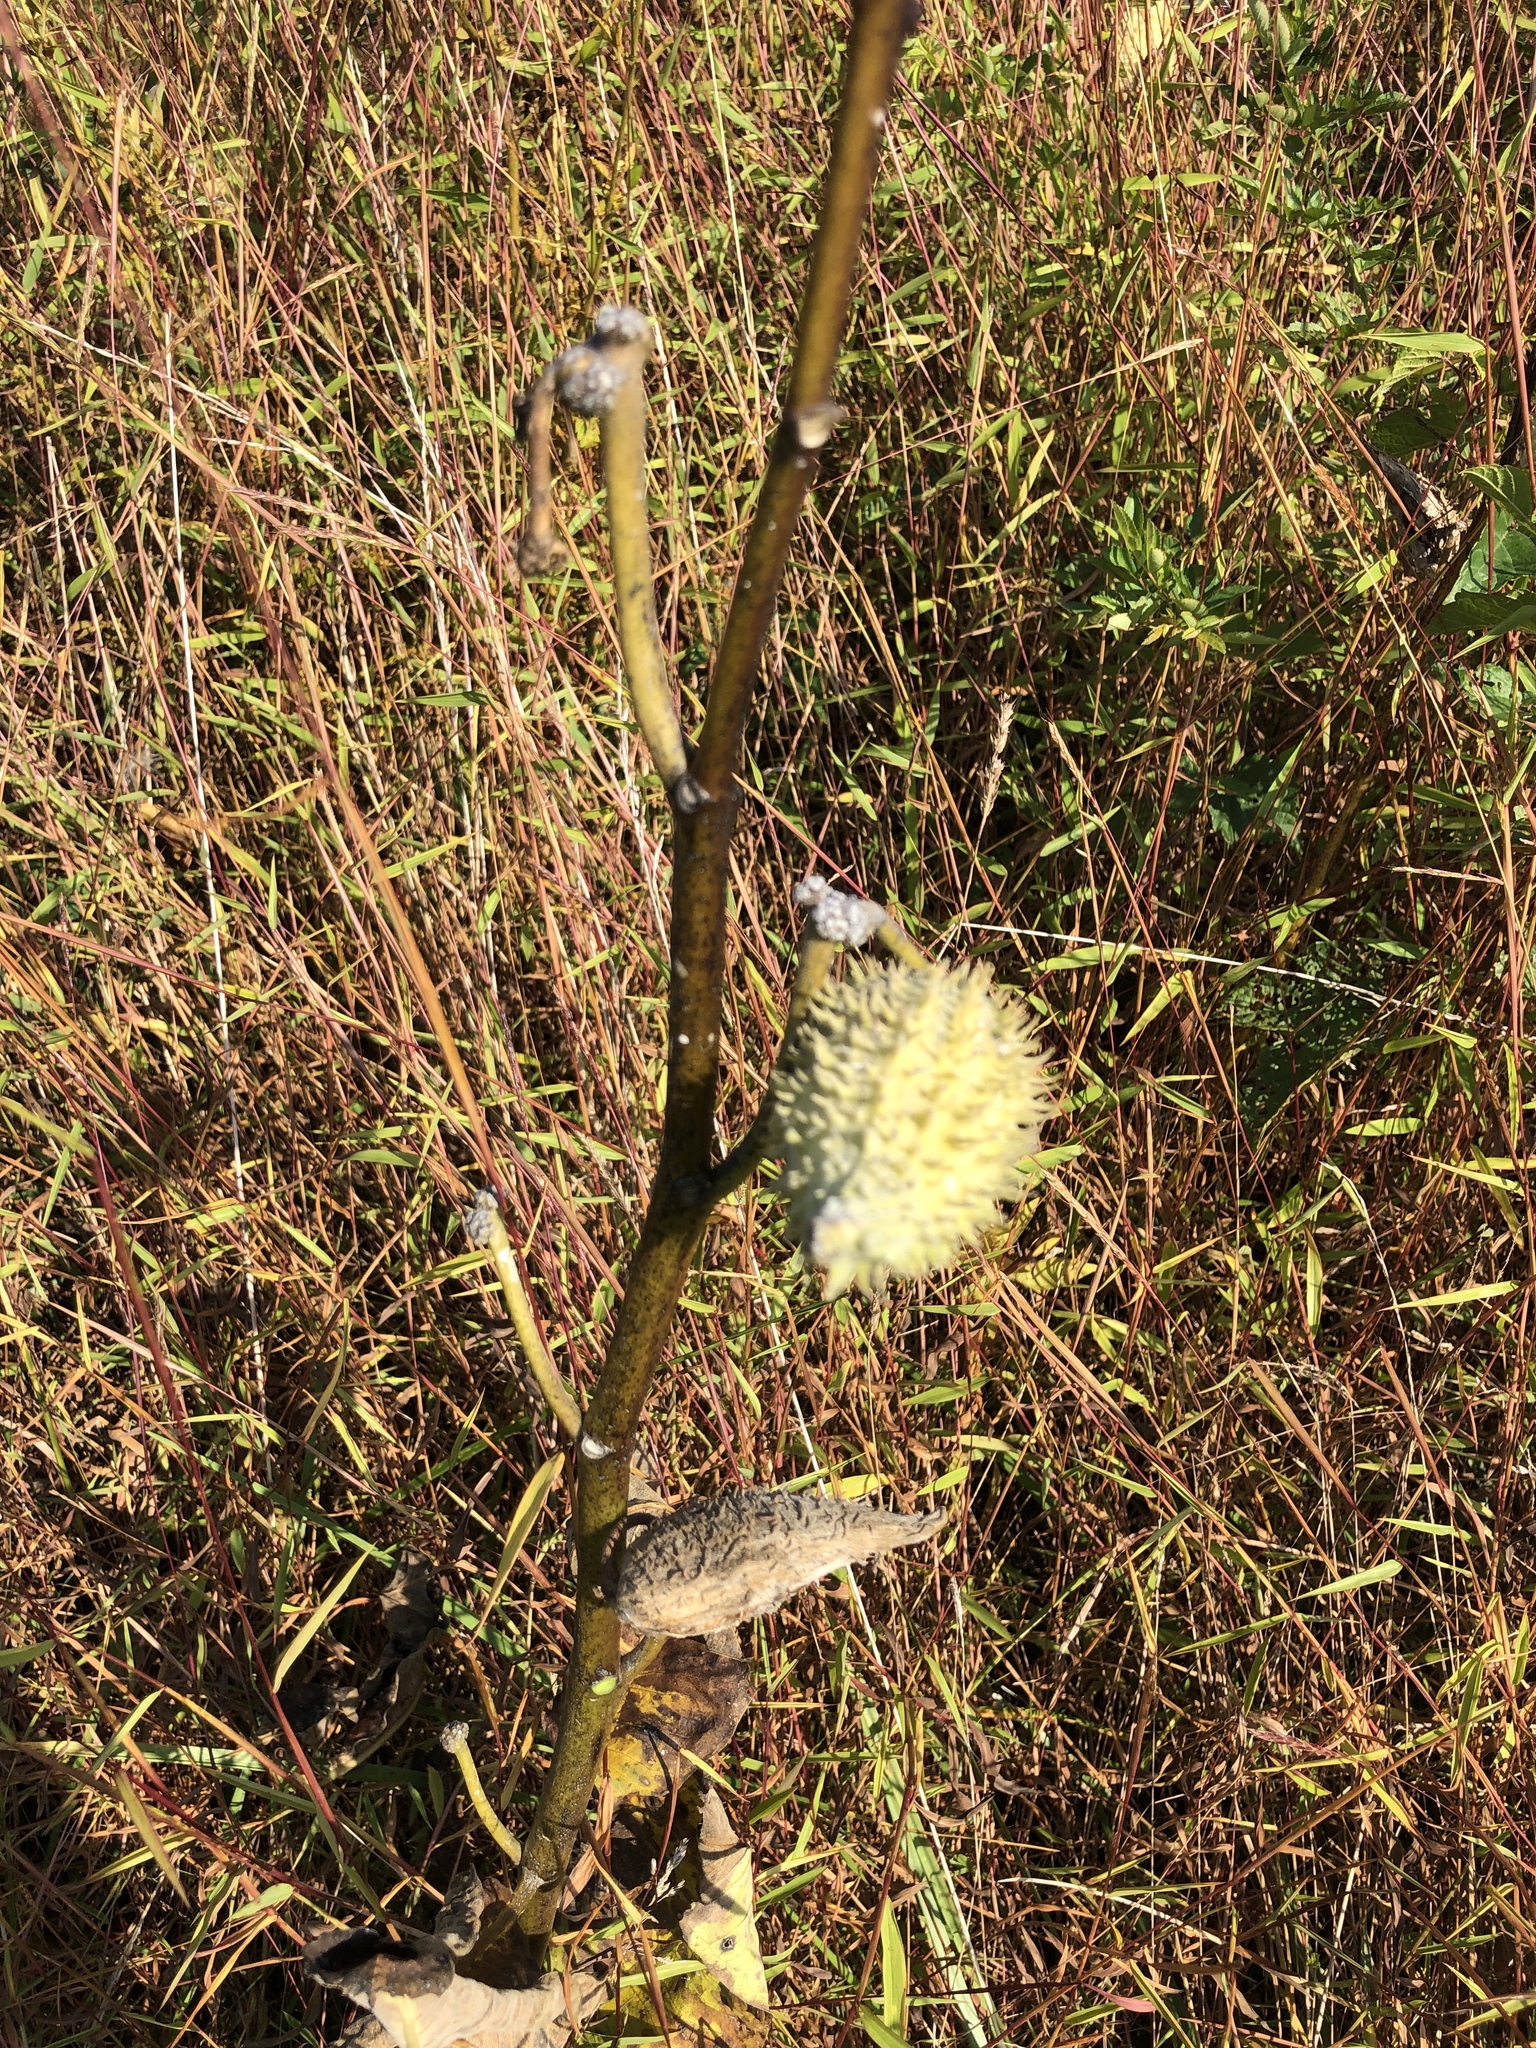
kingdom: Plantae
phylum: Tracheophyta
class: Magnoliopsida
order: Gentianales
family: Apocynaceae
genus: Asclepias
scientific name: Asclepias syriaca
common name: Common milkweed
